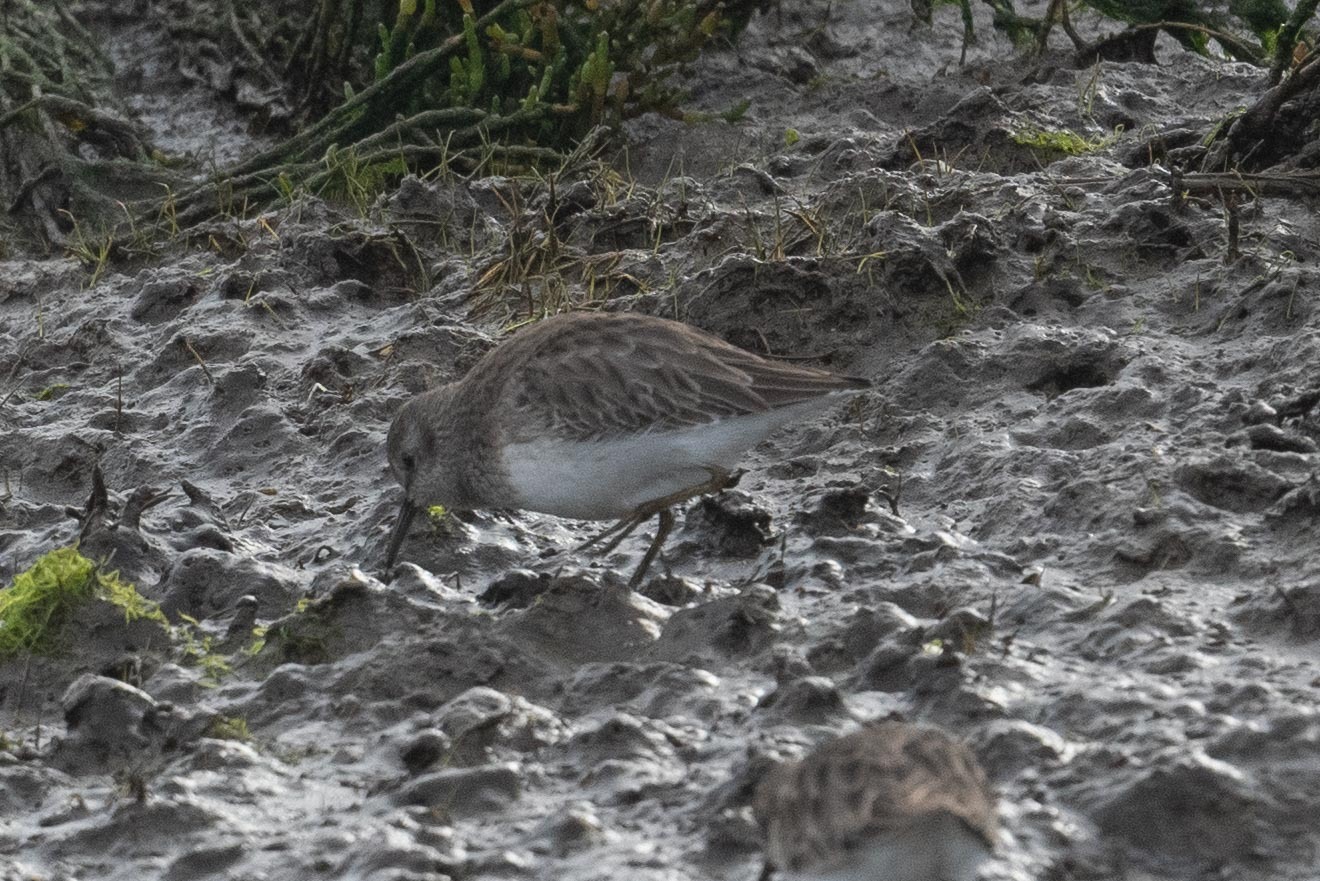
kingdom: Animalia
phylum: Chordata
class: Aves
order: Charadriiformes
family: Scolopacidae
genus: Calidris
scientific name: Calidris minutilla
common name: Least sandpiper
